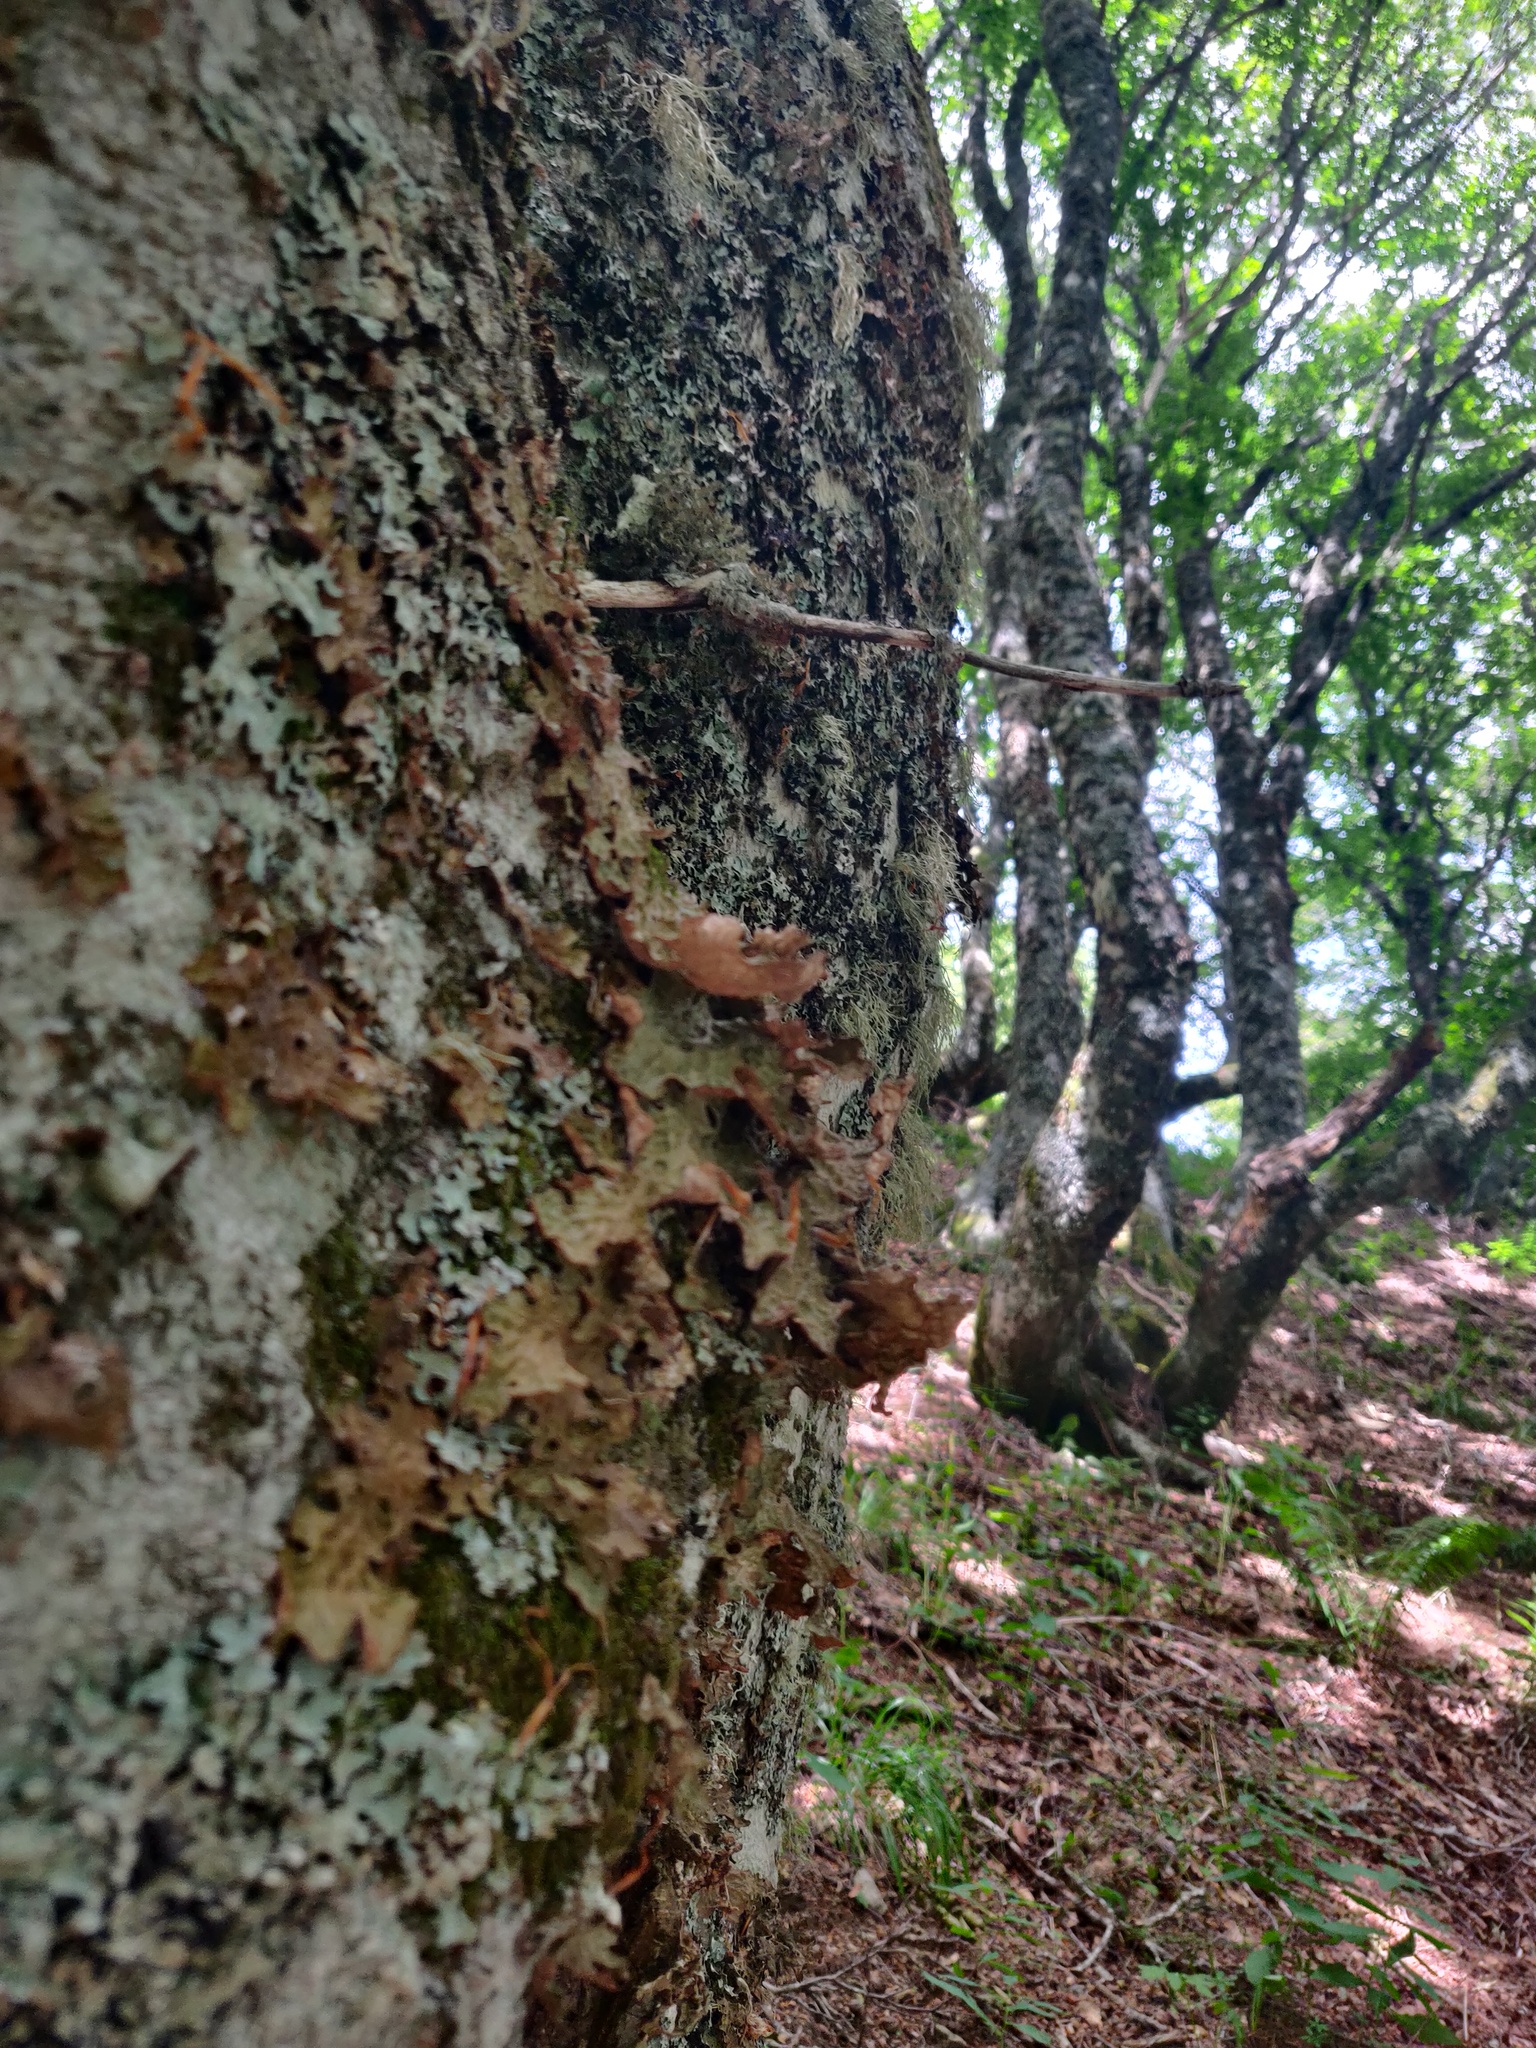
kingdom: Fungi
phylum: Ascomycota
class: Lecanoromycetes
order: Peltigerales
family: Lobariaceae
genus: Lobaria
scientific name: Lobaria pulmonaria
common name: Lungwort
